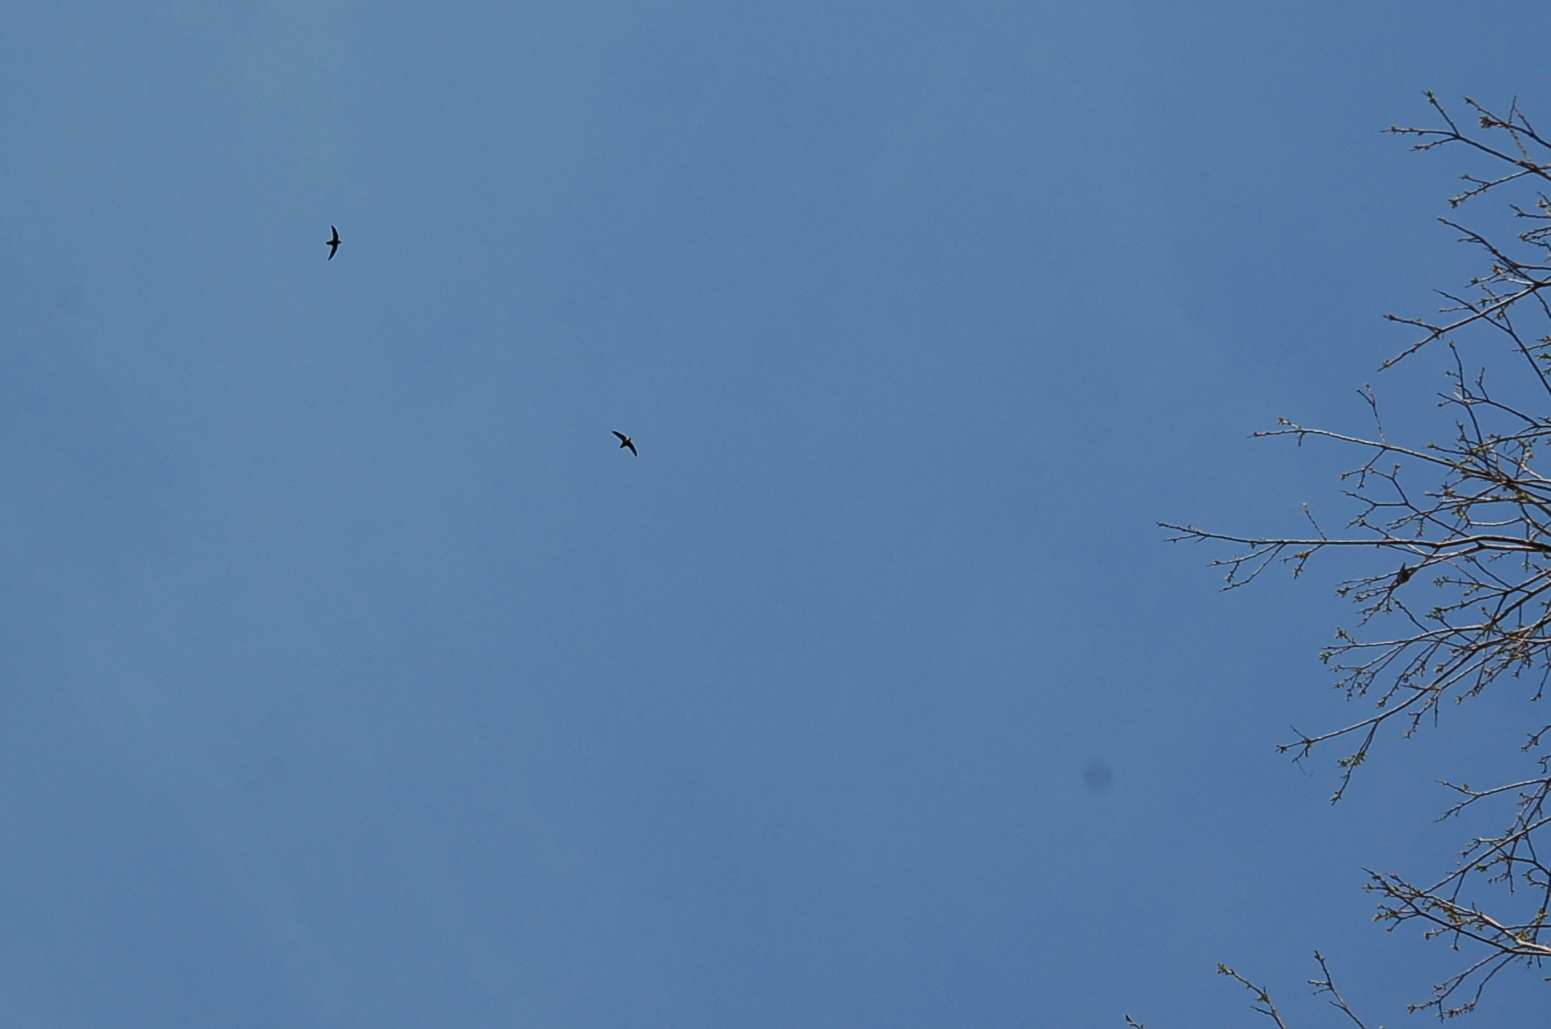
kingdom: Animalia
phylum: Chordata
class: Aves
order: Apodiformes
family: Apodidae
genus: Chaetura
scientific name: Chaetura pelagica
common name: Chimney swift
